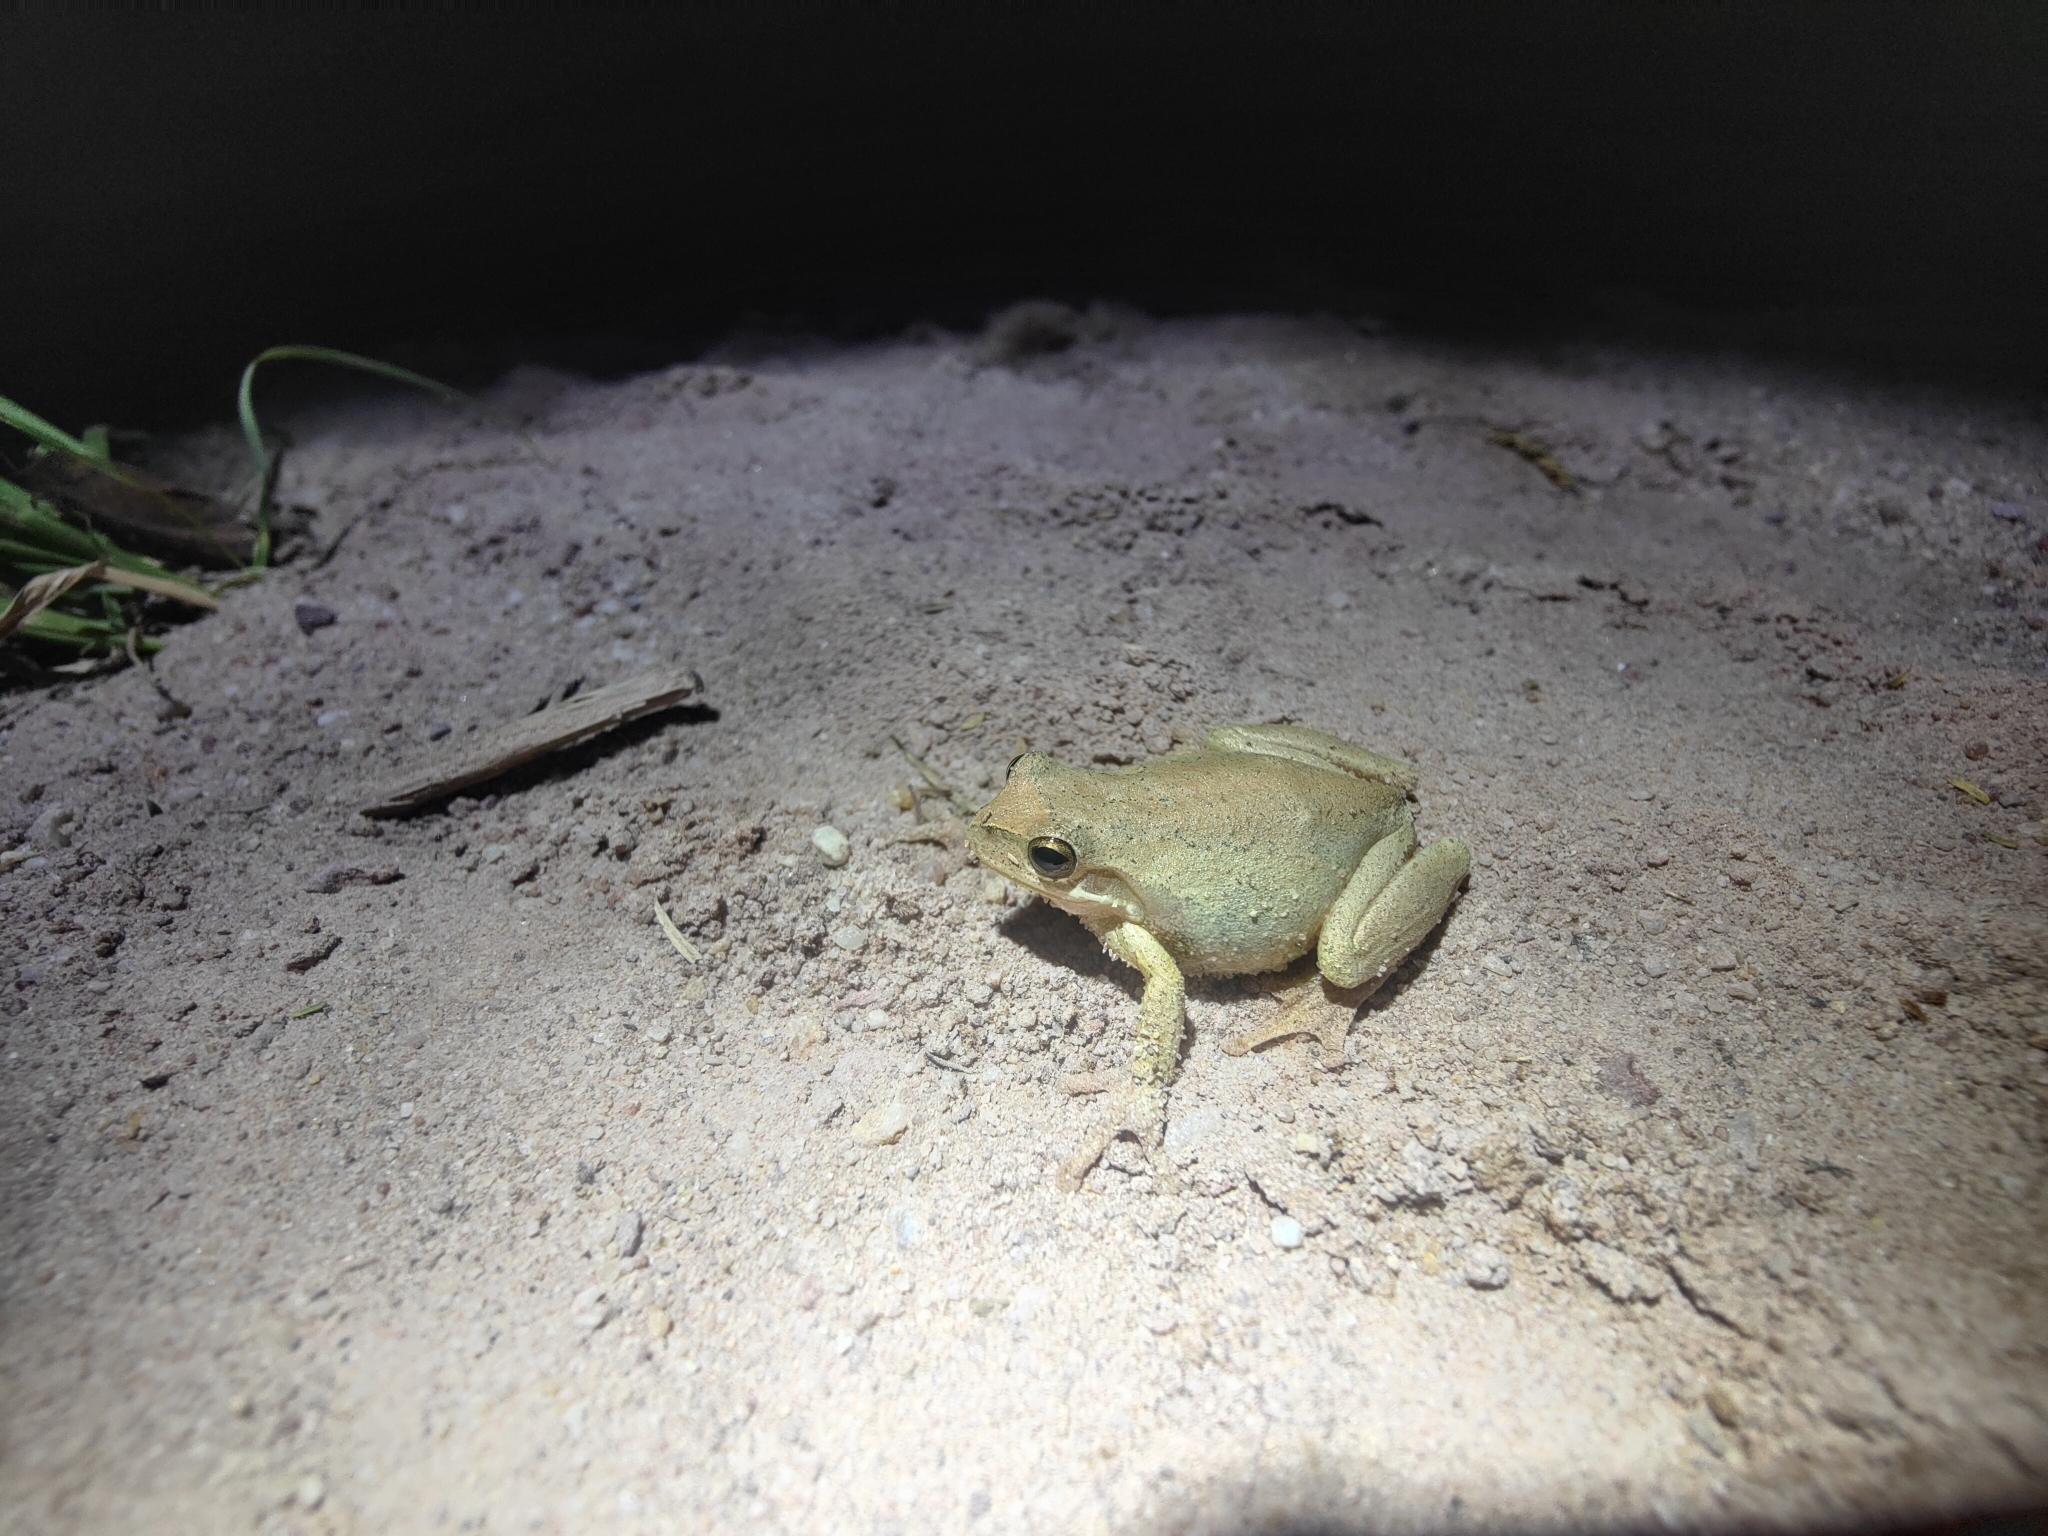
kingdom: Animalia
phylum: Chordata
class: Amphibia
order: Anura
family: Pelodryadidae
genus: Litoria
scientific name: Litoria ewingii
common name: Southern brown tree frog
